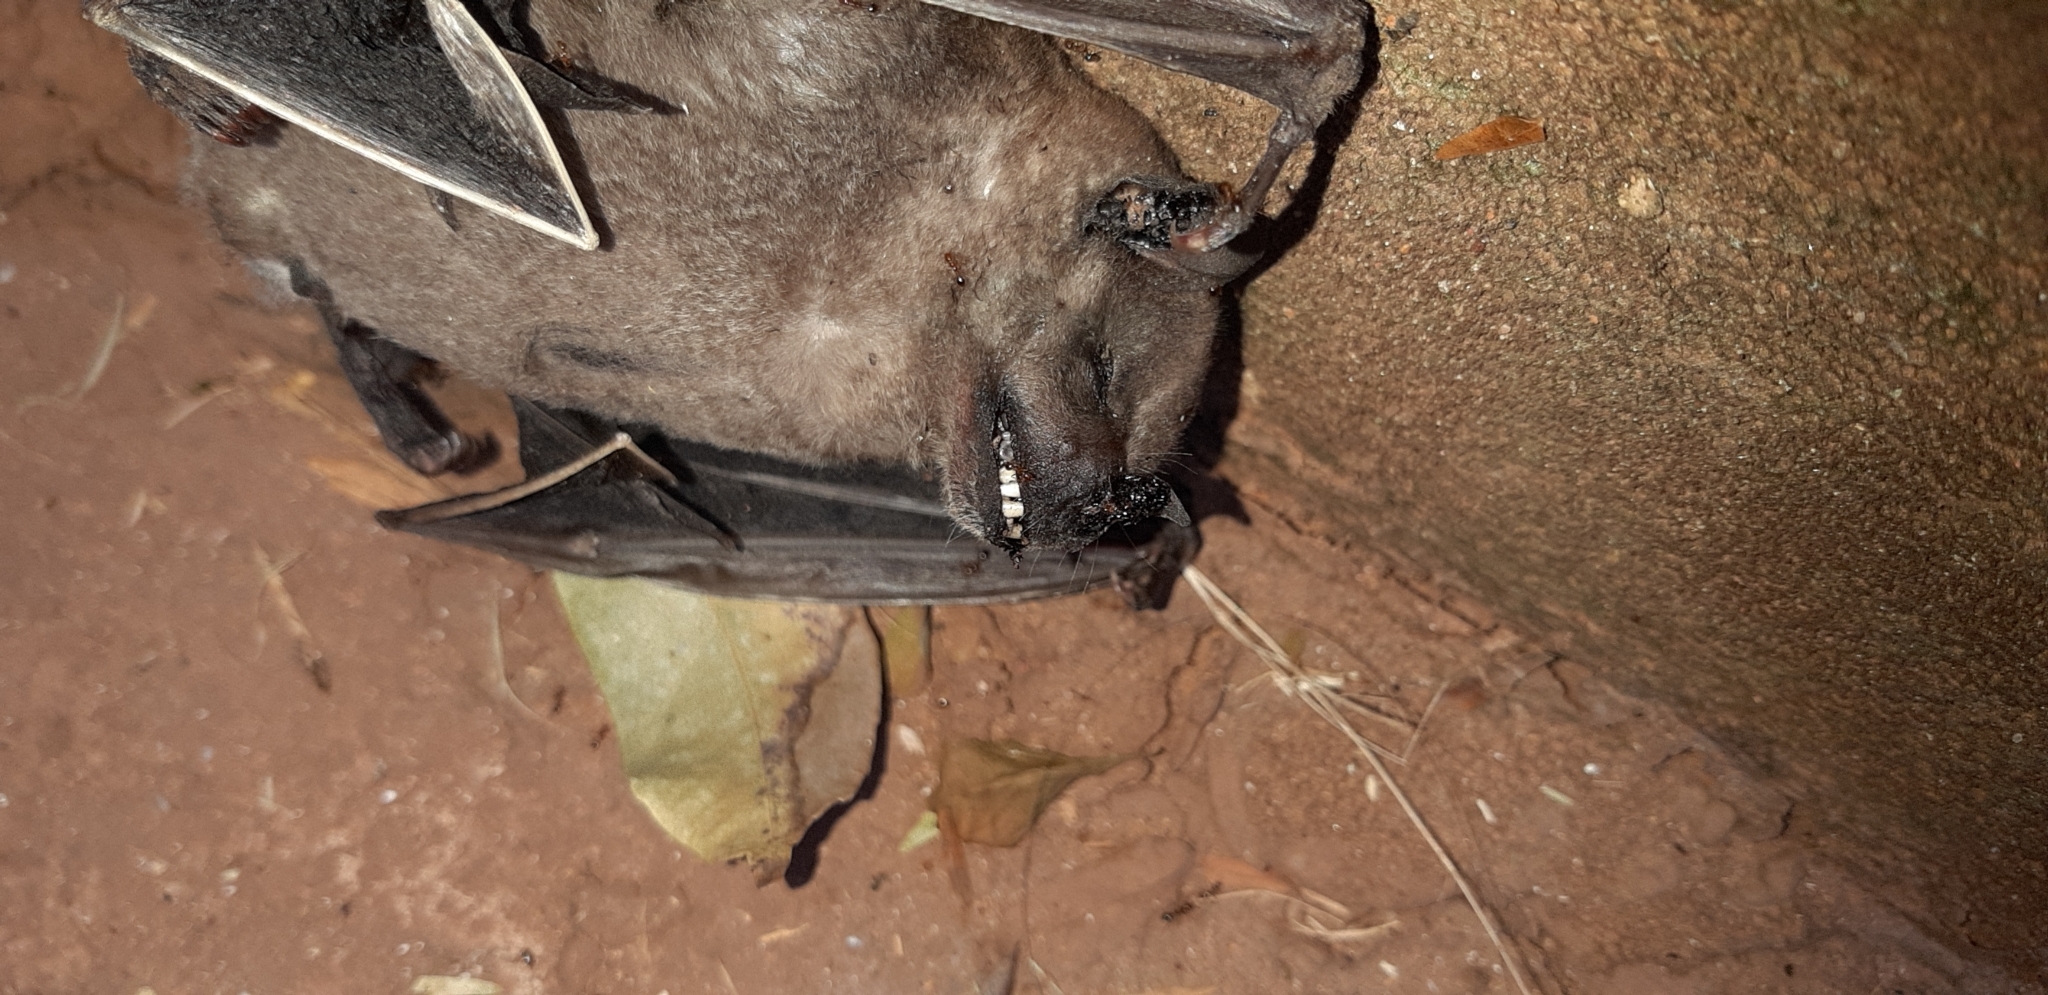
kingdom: Animalia
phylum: Chordata
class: Mammalia
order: Chiroptera
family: Phyllostomidae
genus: Artibeus
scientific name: Artibeus planirostris
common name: Flat-faced fruit-eating bat
